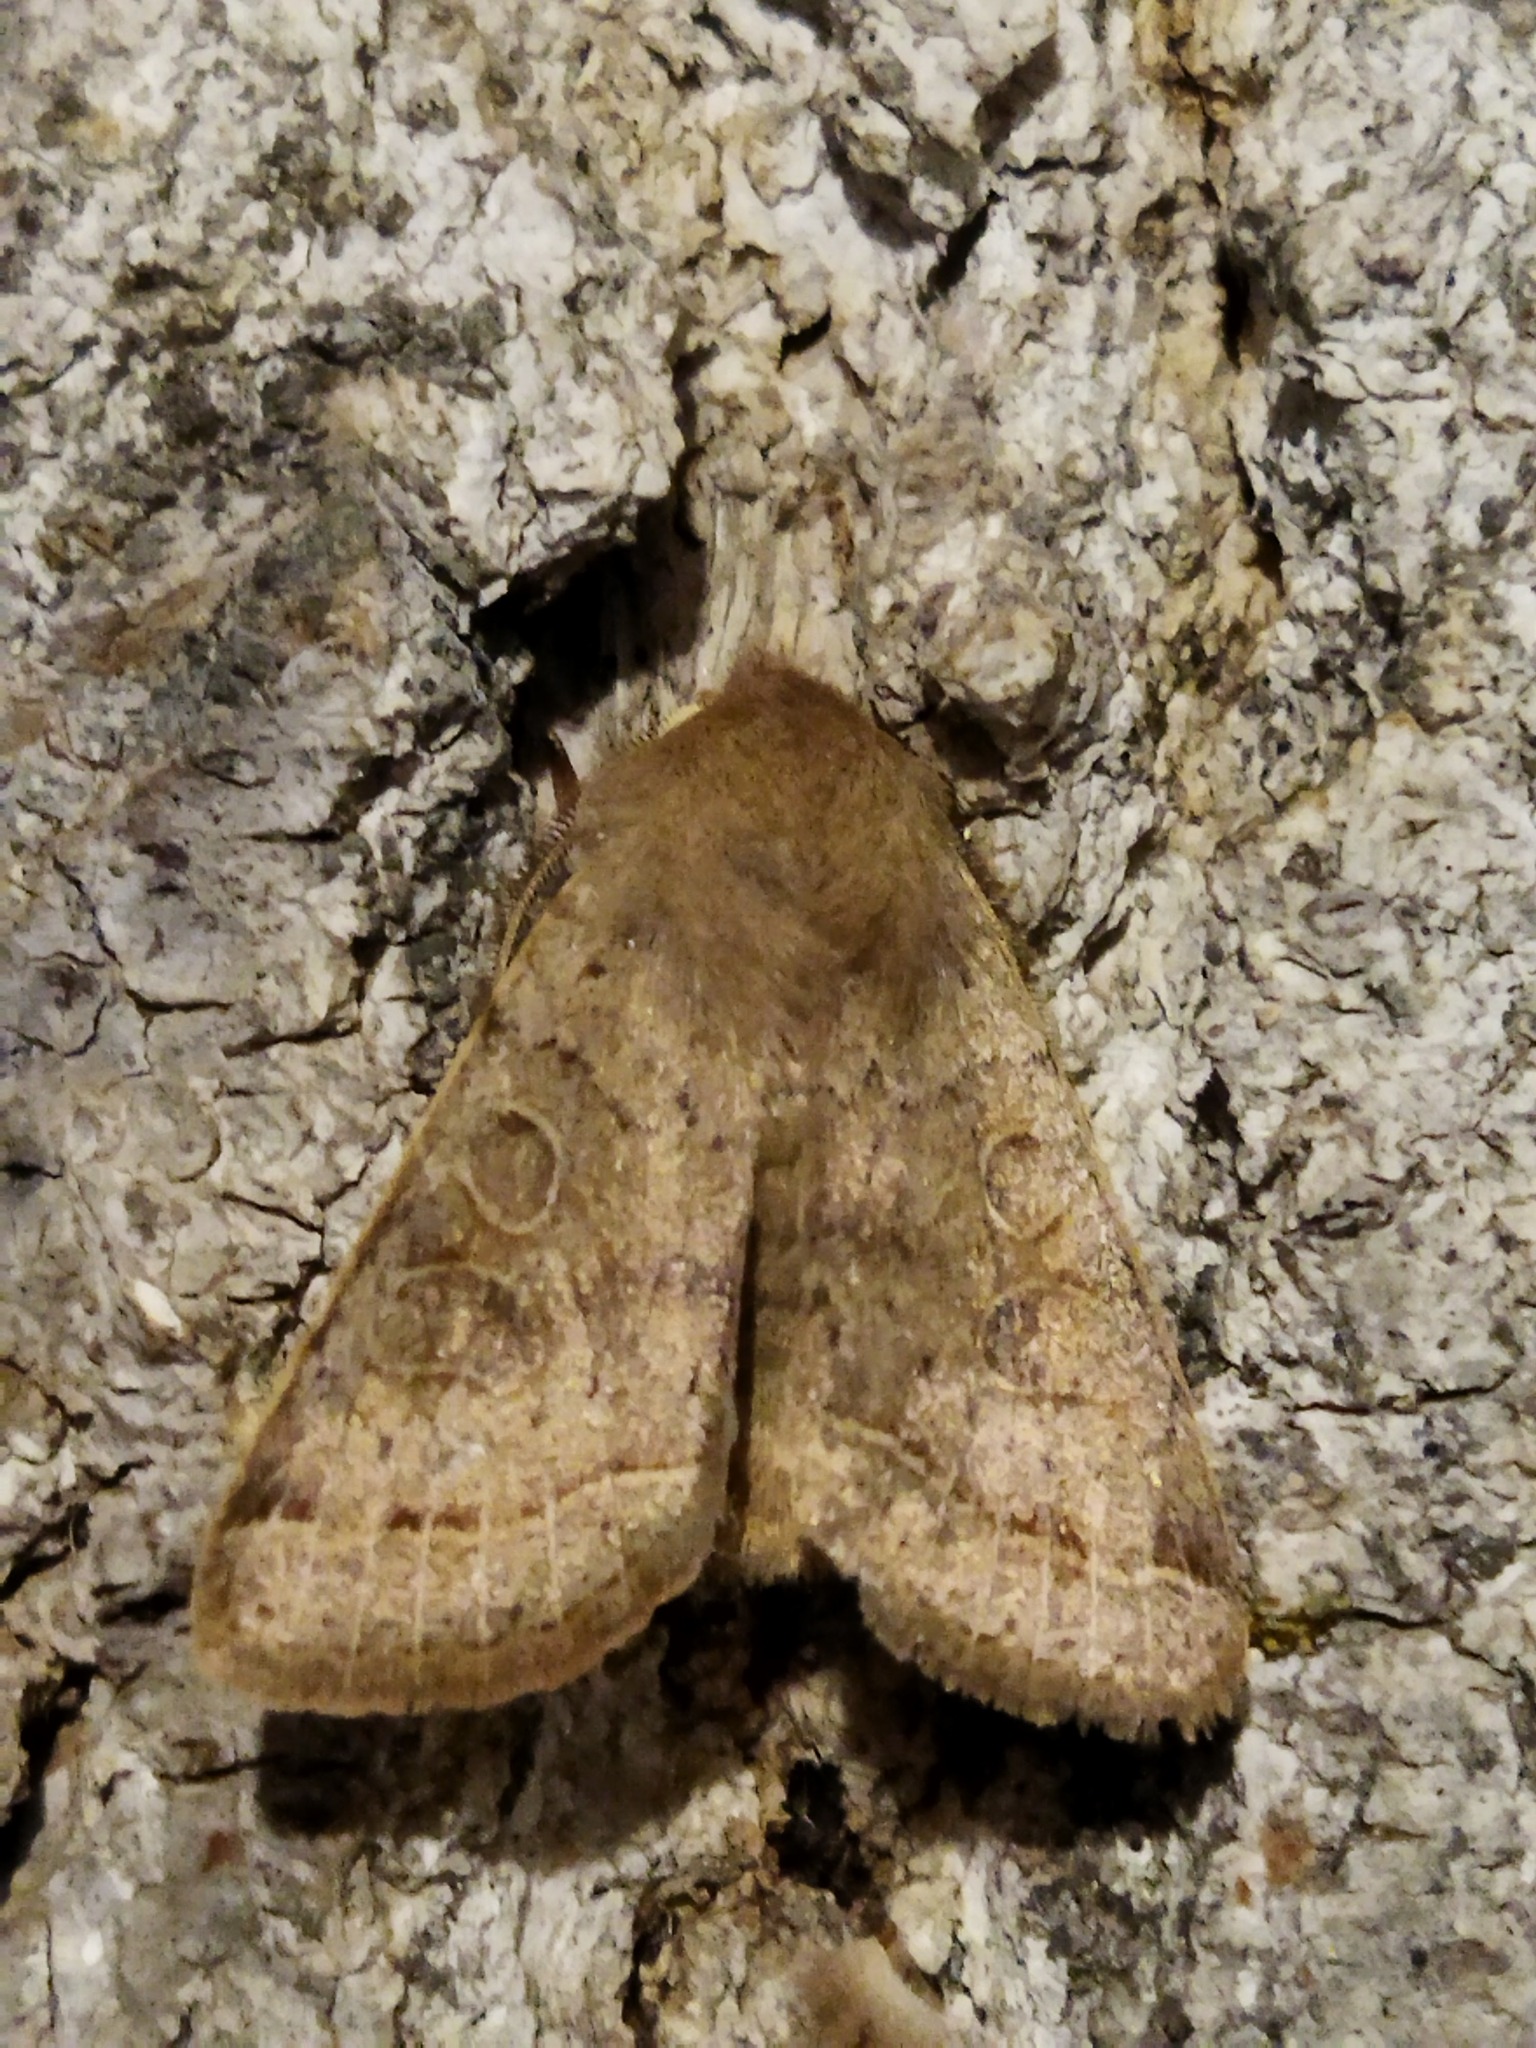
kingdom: Animalia
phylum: Arthropoda
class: Insecta
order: Lepidoptera
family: Noctuidae
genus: Orthosia
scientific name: Orthosia cerasi
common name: Common quaker
